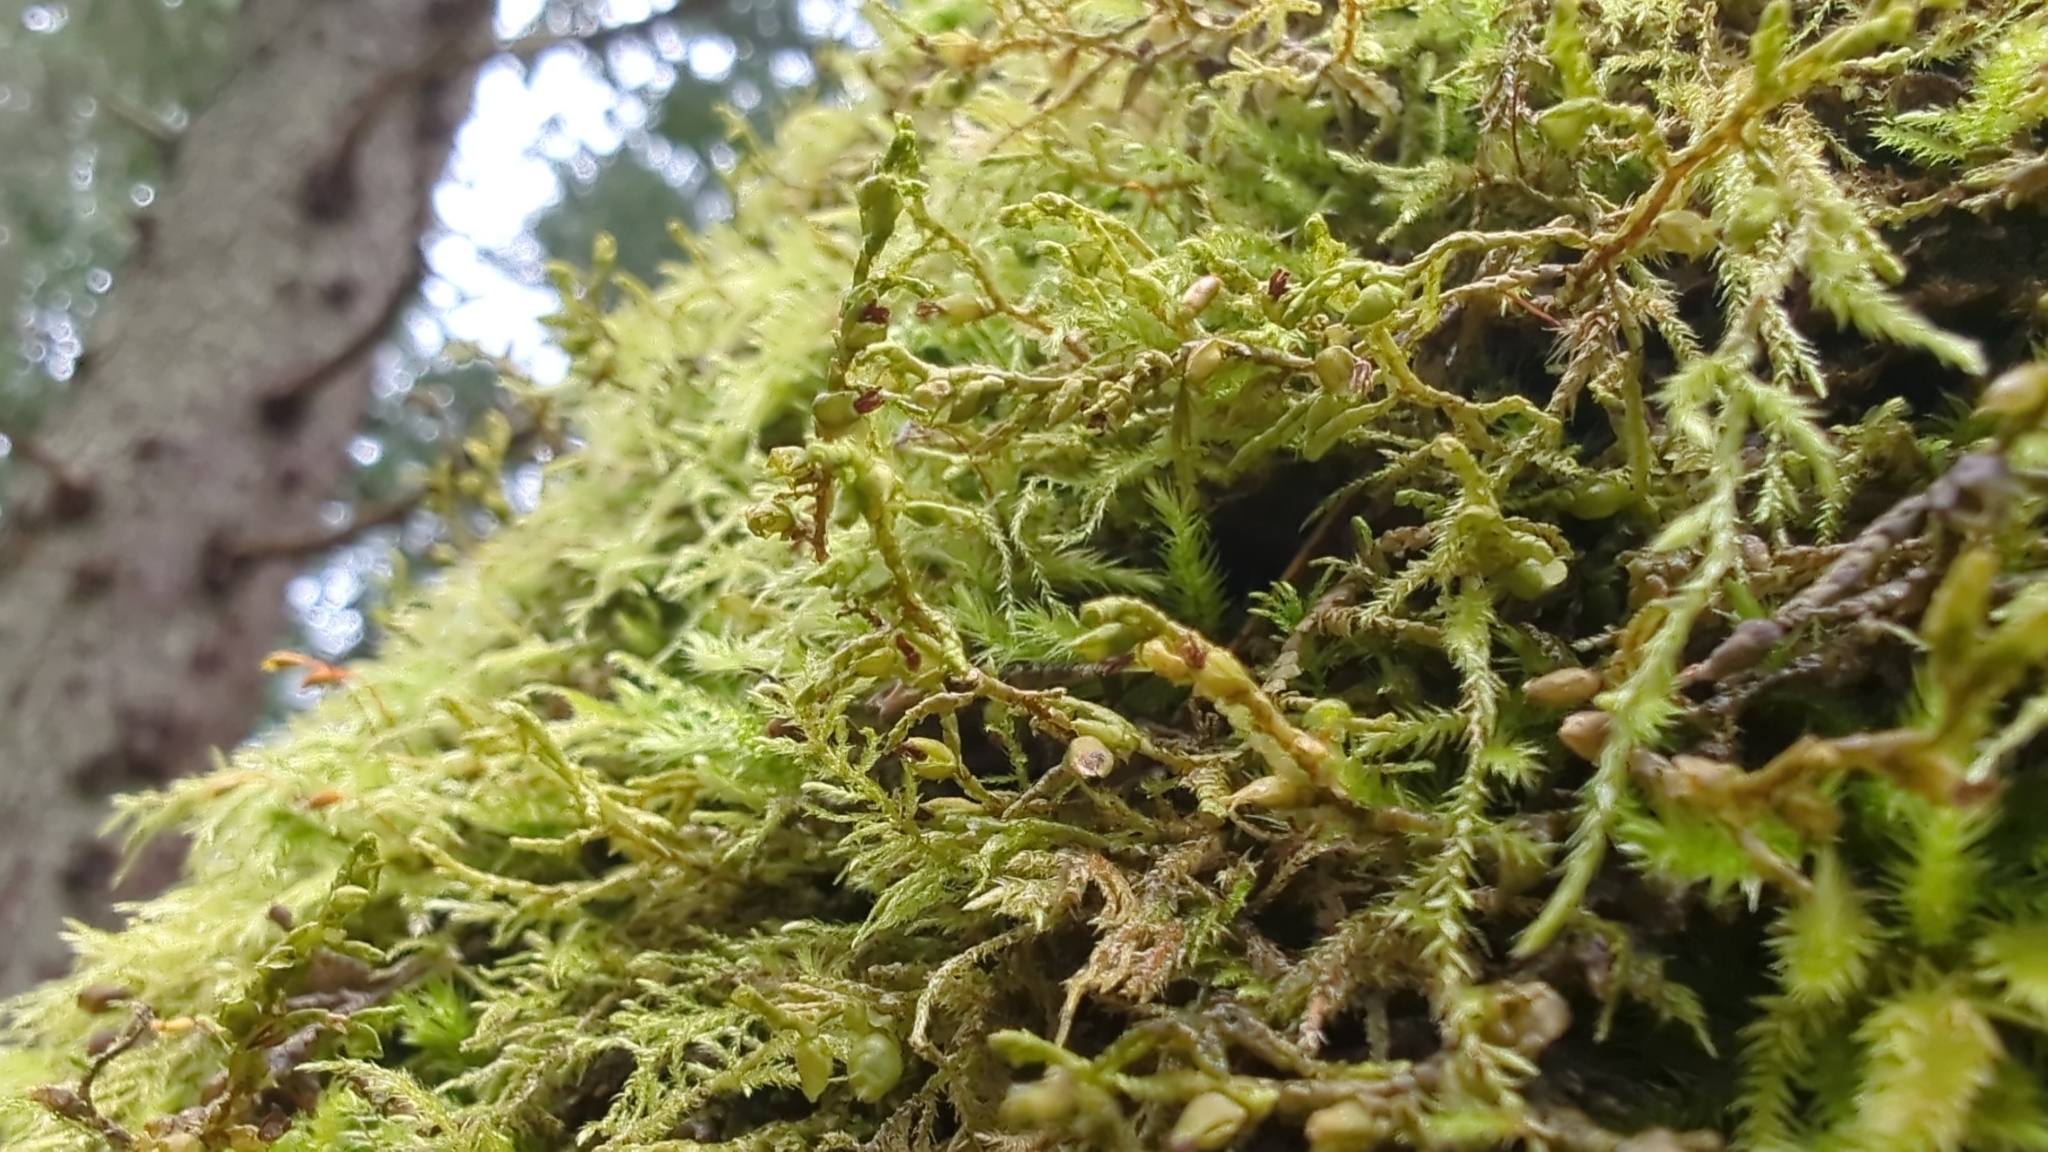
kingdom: Plantae
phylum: Marchantiophyta
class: Jungermanniopsida
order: Porellales
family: Porellaceae
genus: Porella
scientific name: Porella navicularis
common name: Tree ruffle liverwort
